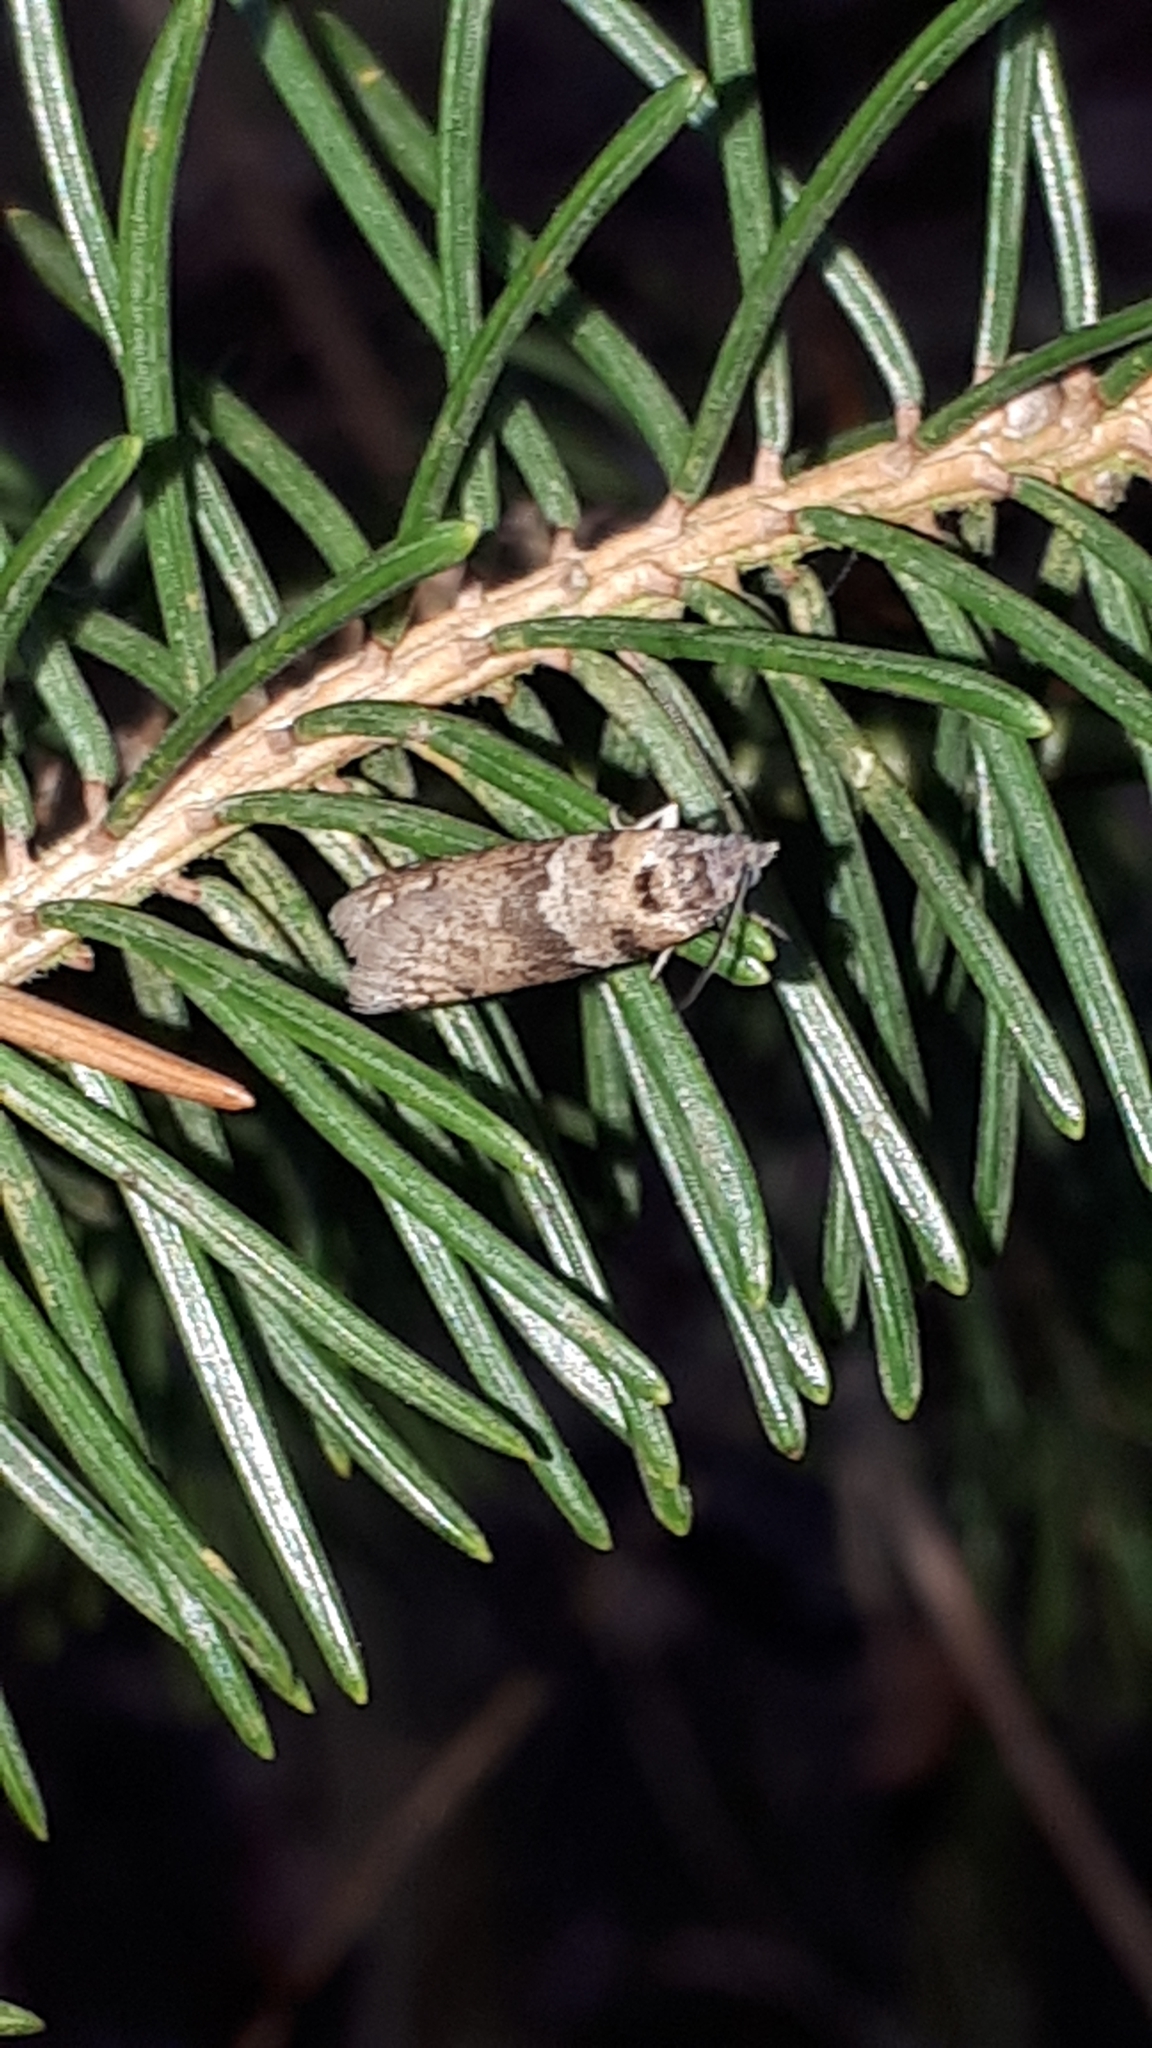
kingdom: Animalia
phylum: Arthropoda
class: Insecta
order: Lepidoptera
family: Tortricidae
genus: Tortricodes
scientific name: Tortricodes alternella
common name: Winter shade
